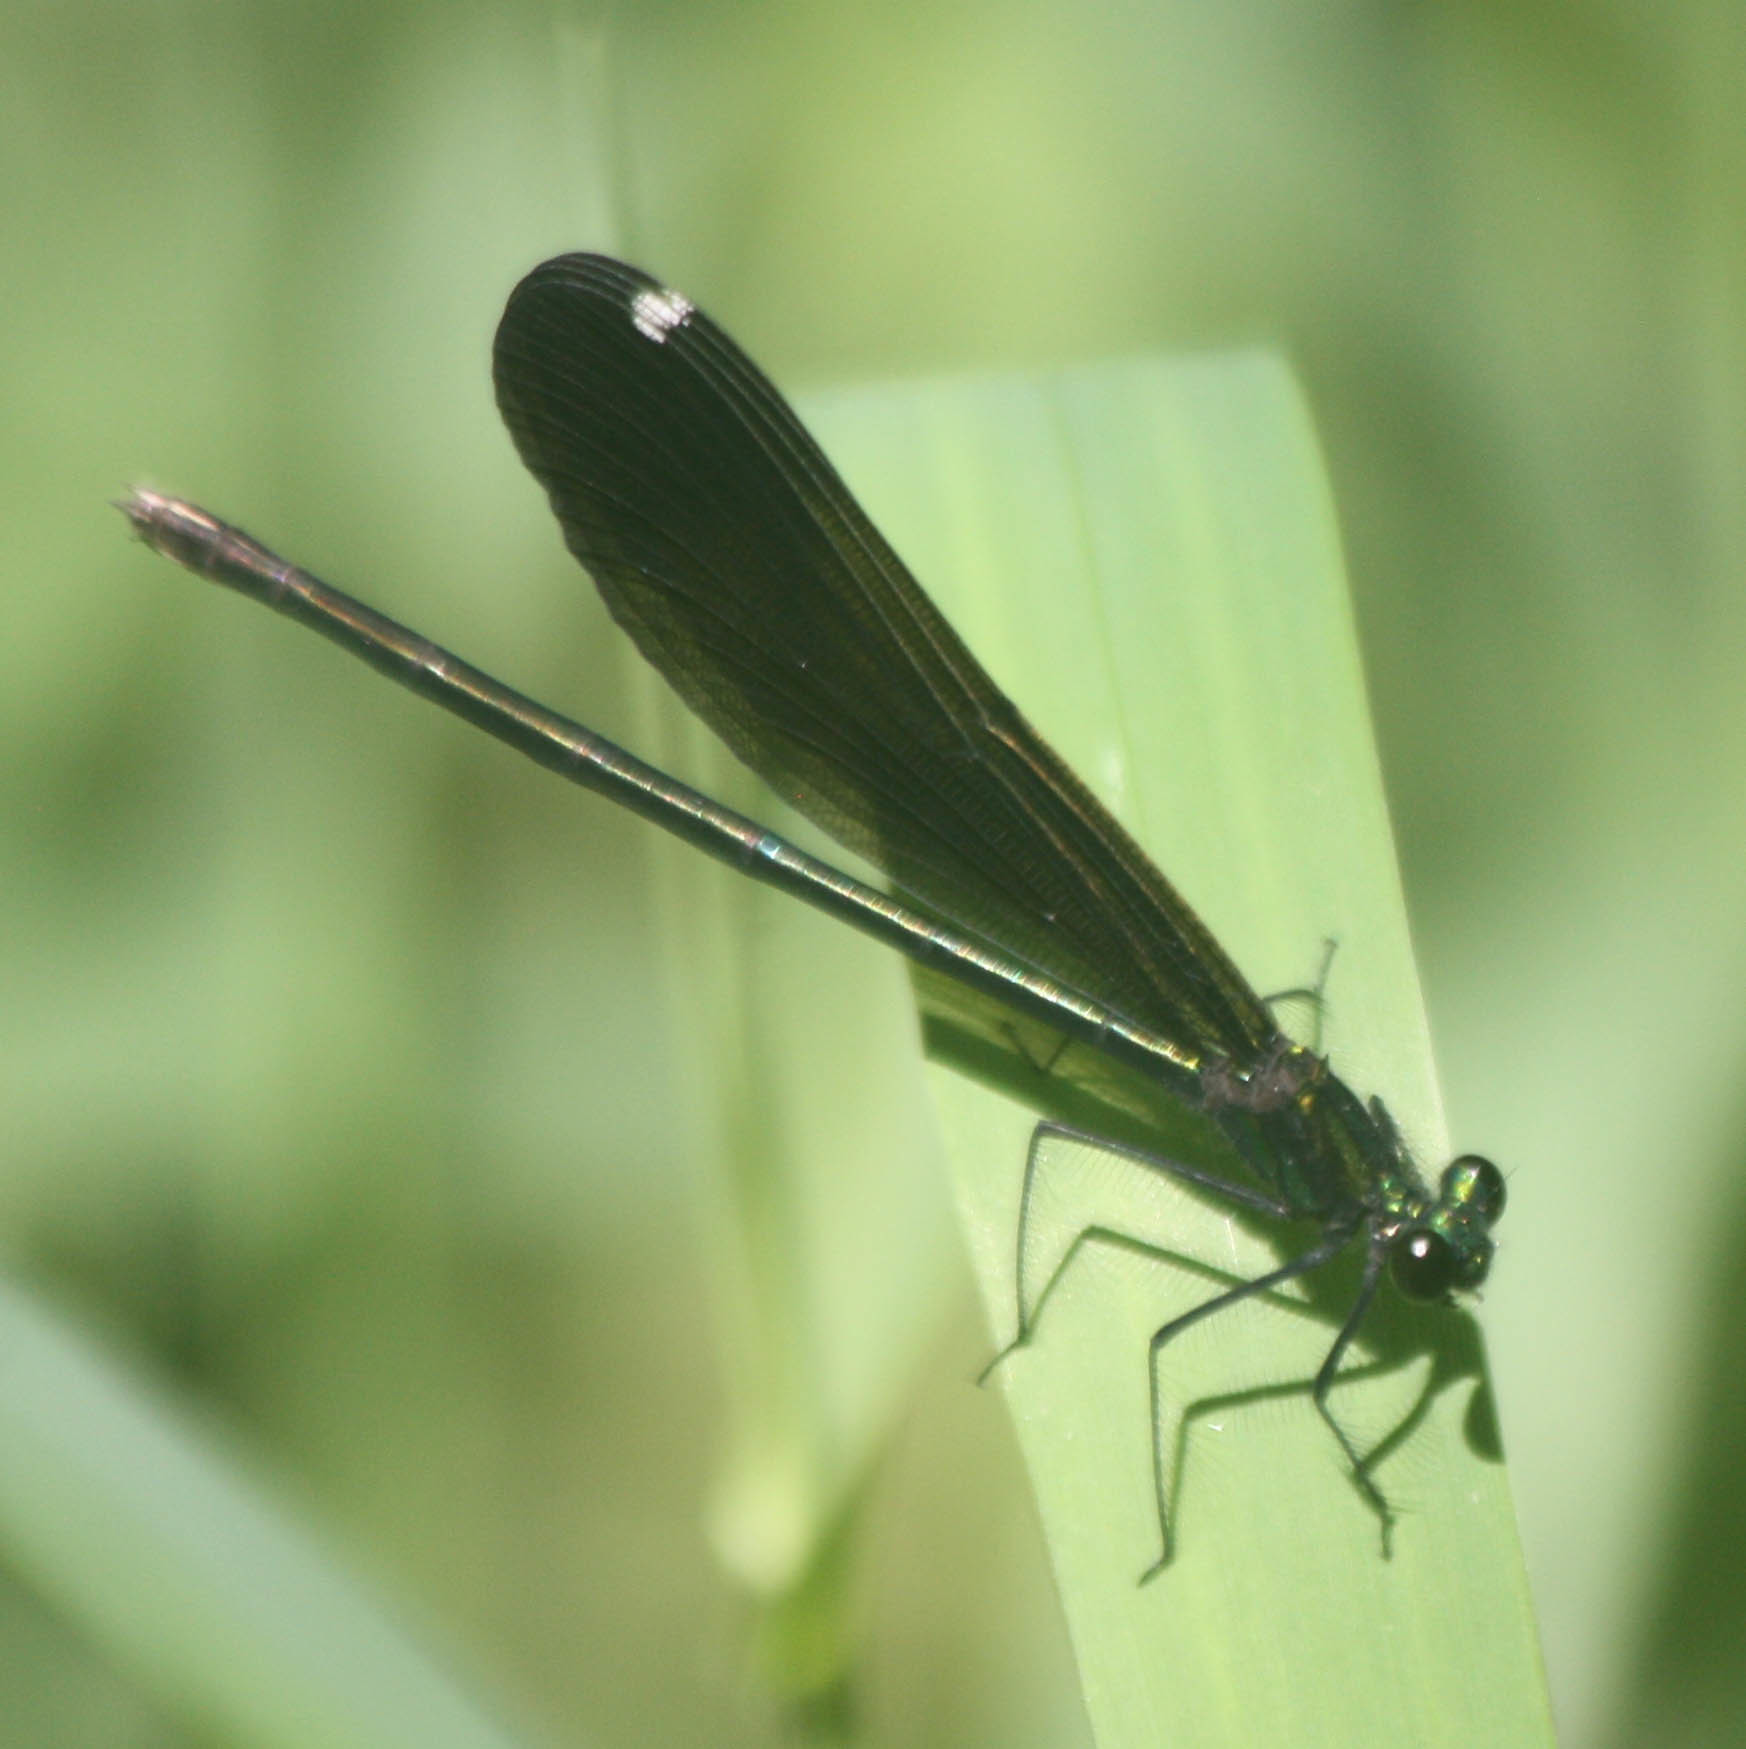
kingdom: Animalia
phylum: Arthropoda
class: Insecta
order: Odonata
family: Calopterygidae
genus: Calopteryx
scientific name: Calopteryx maculata
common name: Ebony jewelwing
